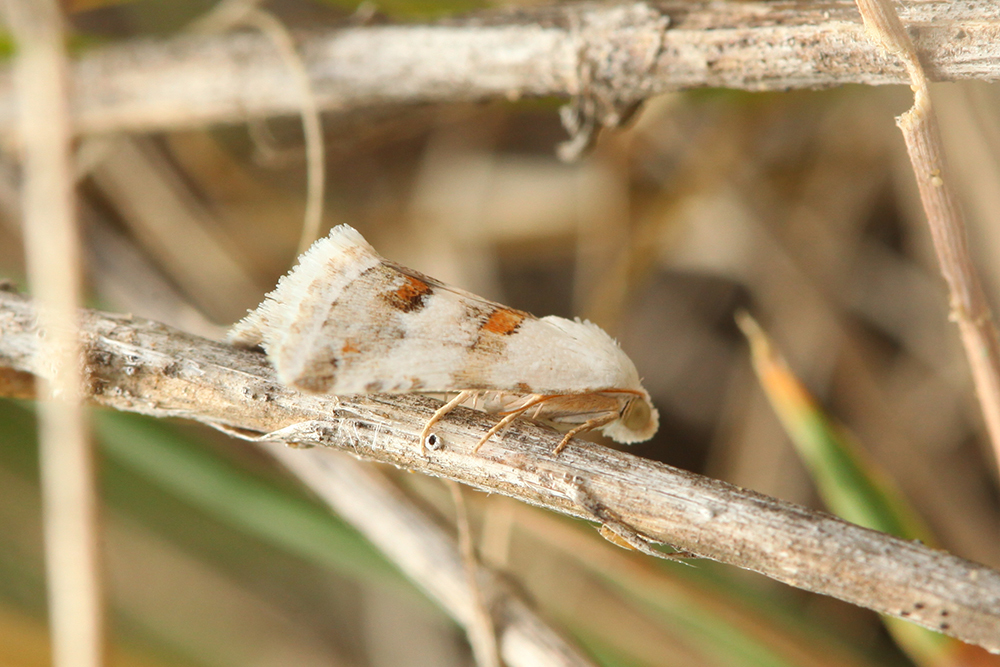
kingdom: Animalia
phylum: Arthropoda
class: Insecta
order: Lepidoptera
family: Noctuidae
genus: Eublemma
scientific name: Eublemma minutata
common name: Scarce marbled
